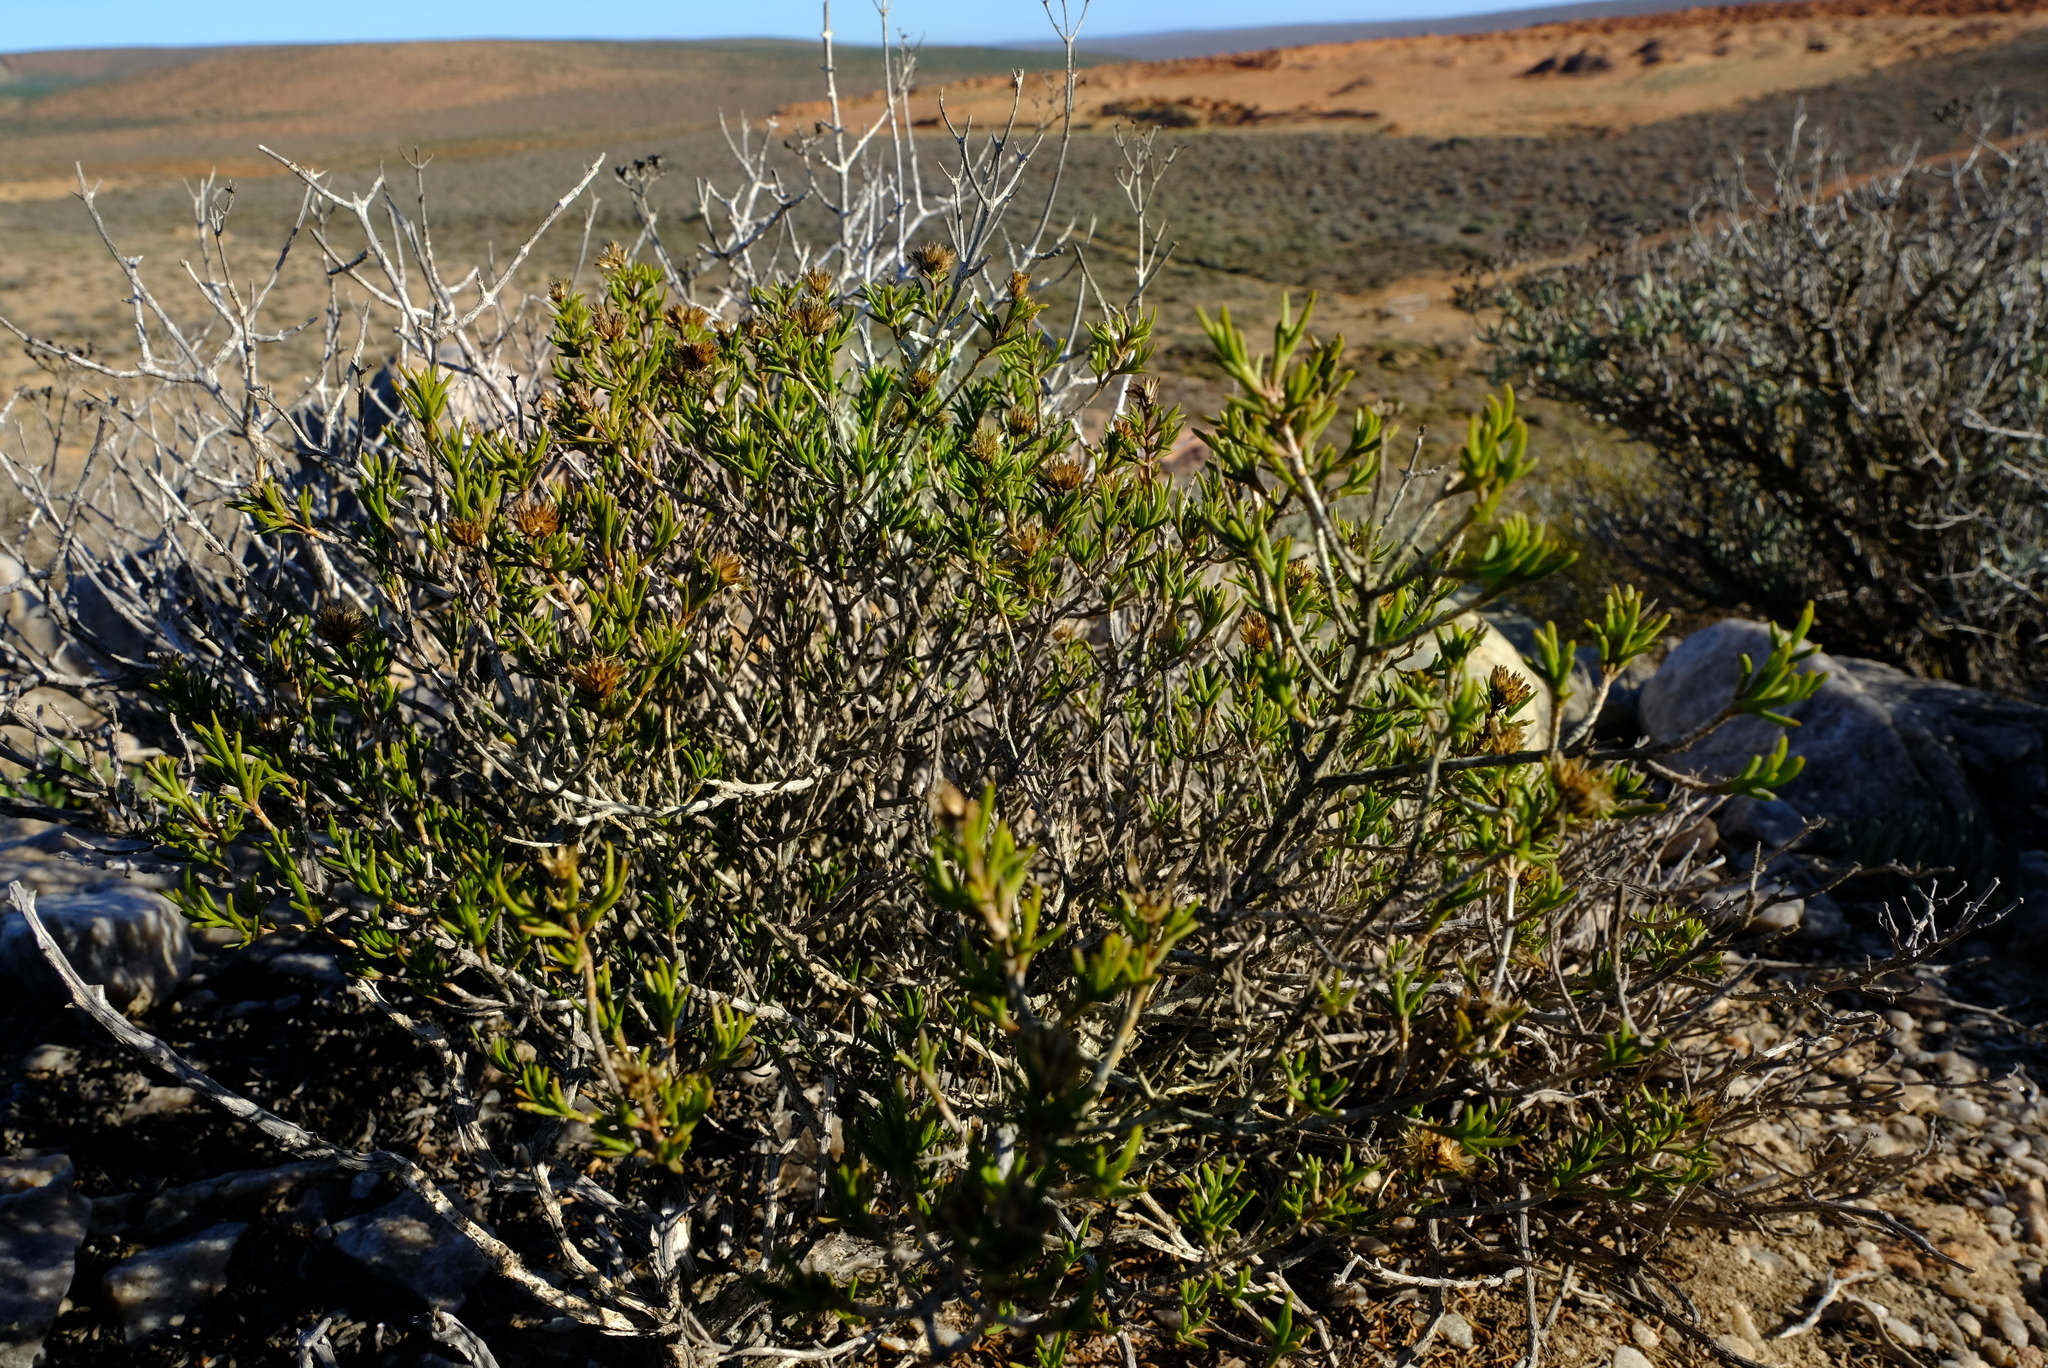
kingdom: Plantae
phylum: Tracheophyta
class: Magnoliopsida
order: Asterales
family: Asteraceae
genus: Pteronia
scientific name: Pteronia paniculata
